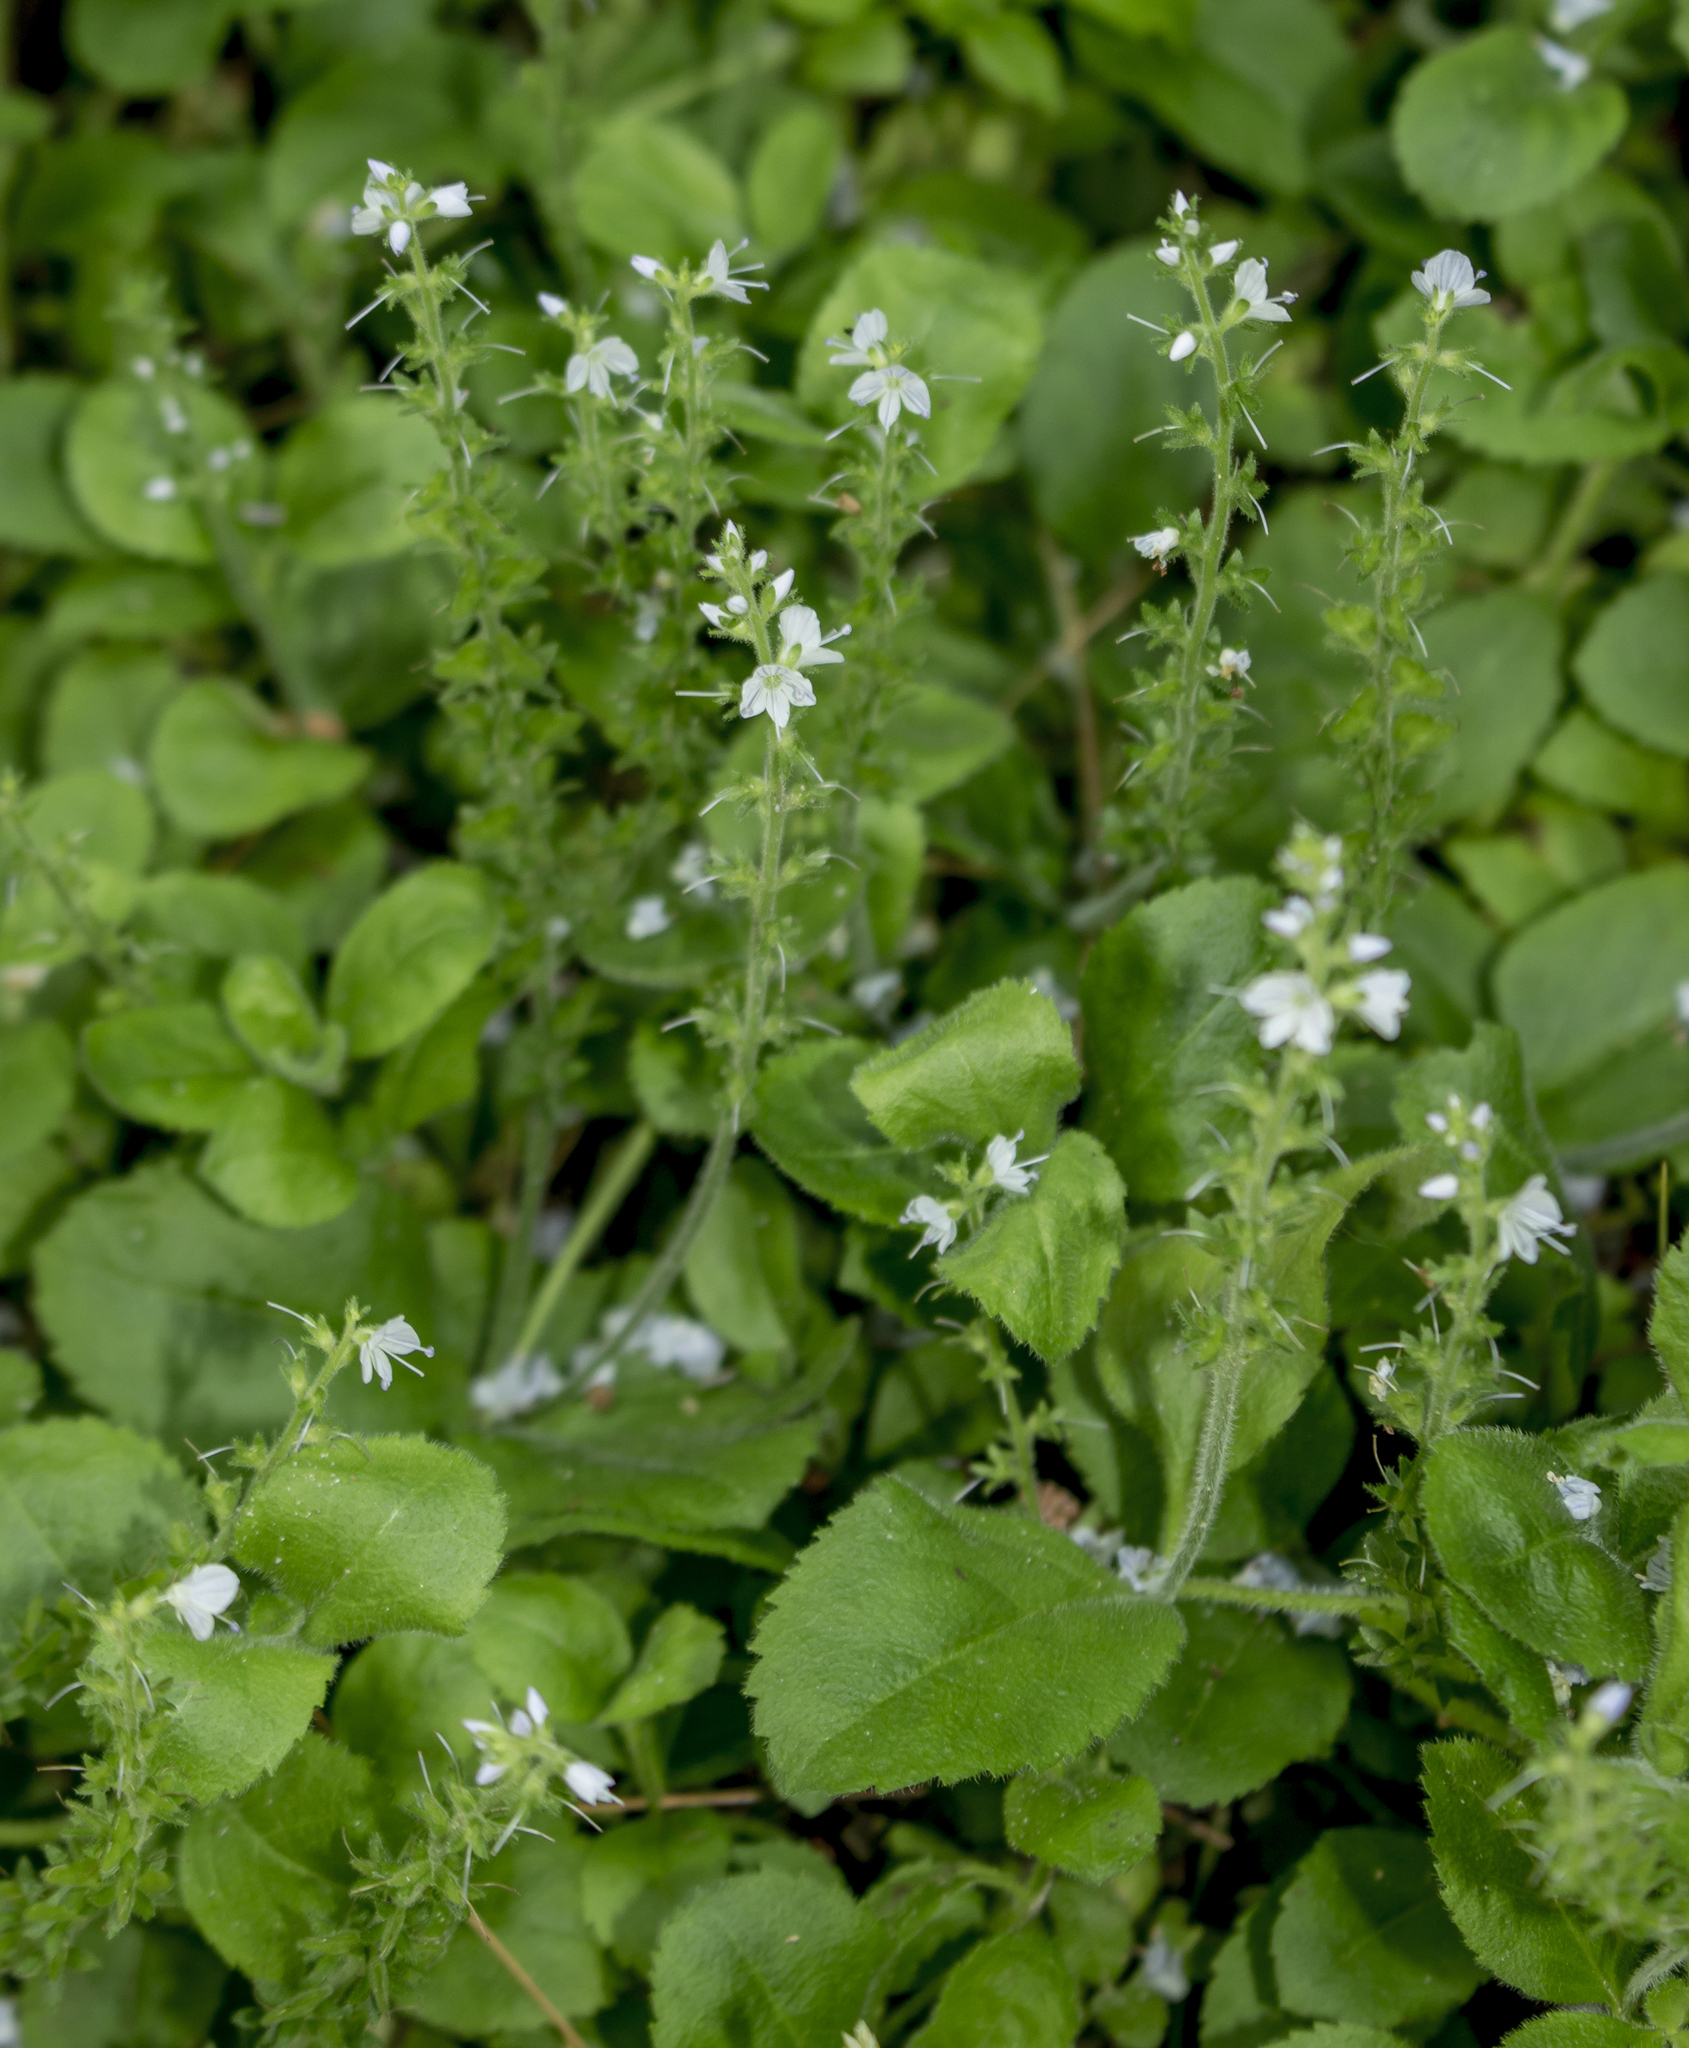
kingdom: Plantae
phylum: Tracheophyta
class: Magnoliopsida
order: Lamiales
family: Plantaginaceae
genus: Veronica
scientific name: Veronica officinalis
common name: Common speedwell
